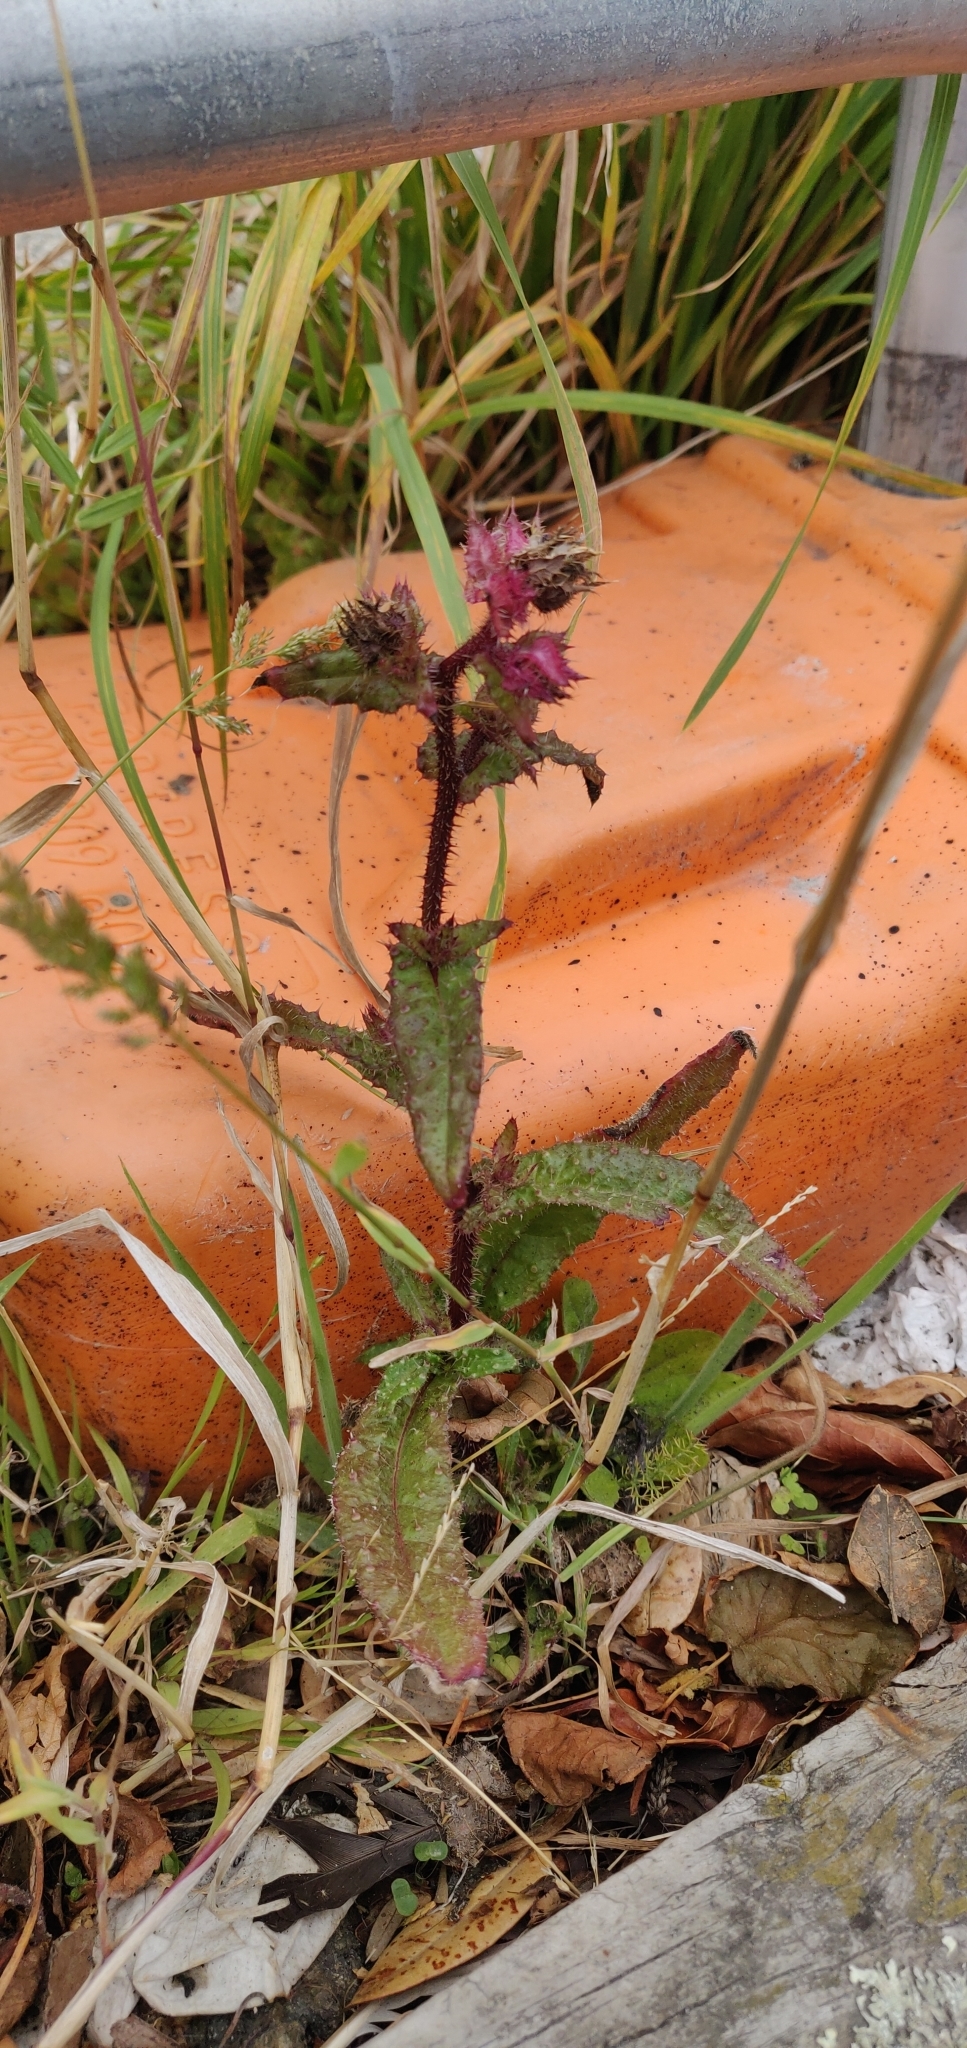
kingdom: Plantae
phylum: Tracheophyta
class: Magnoliopsida
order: Asterales
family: Asteraceae
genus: Helminthotheca
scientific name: Helminthotheca echioides
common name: Ox-tongue
